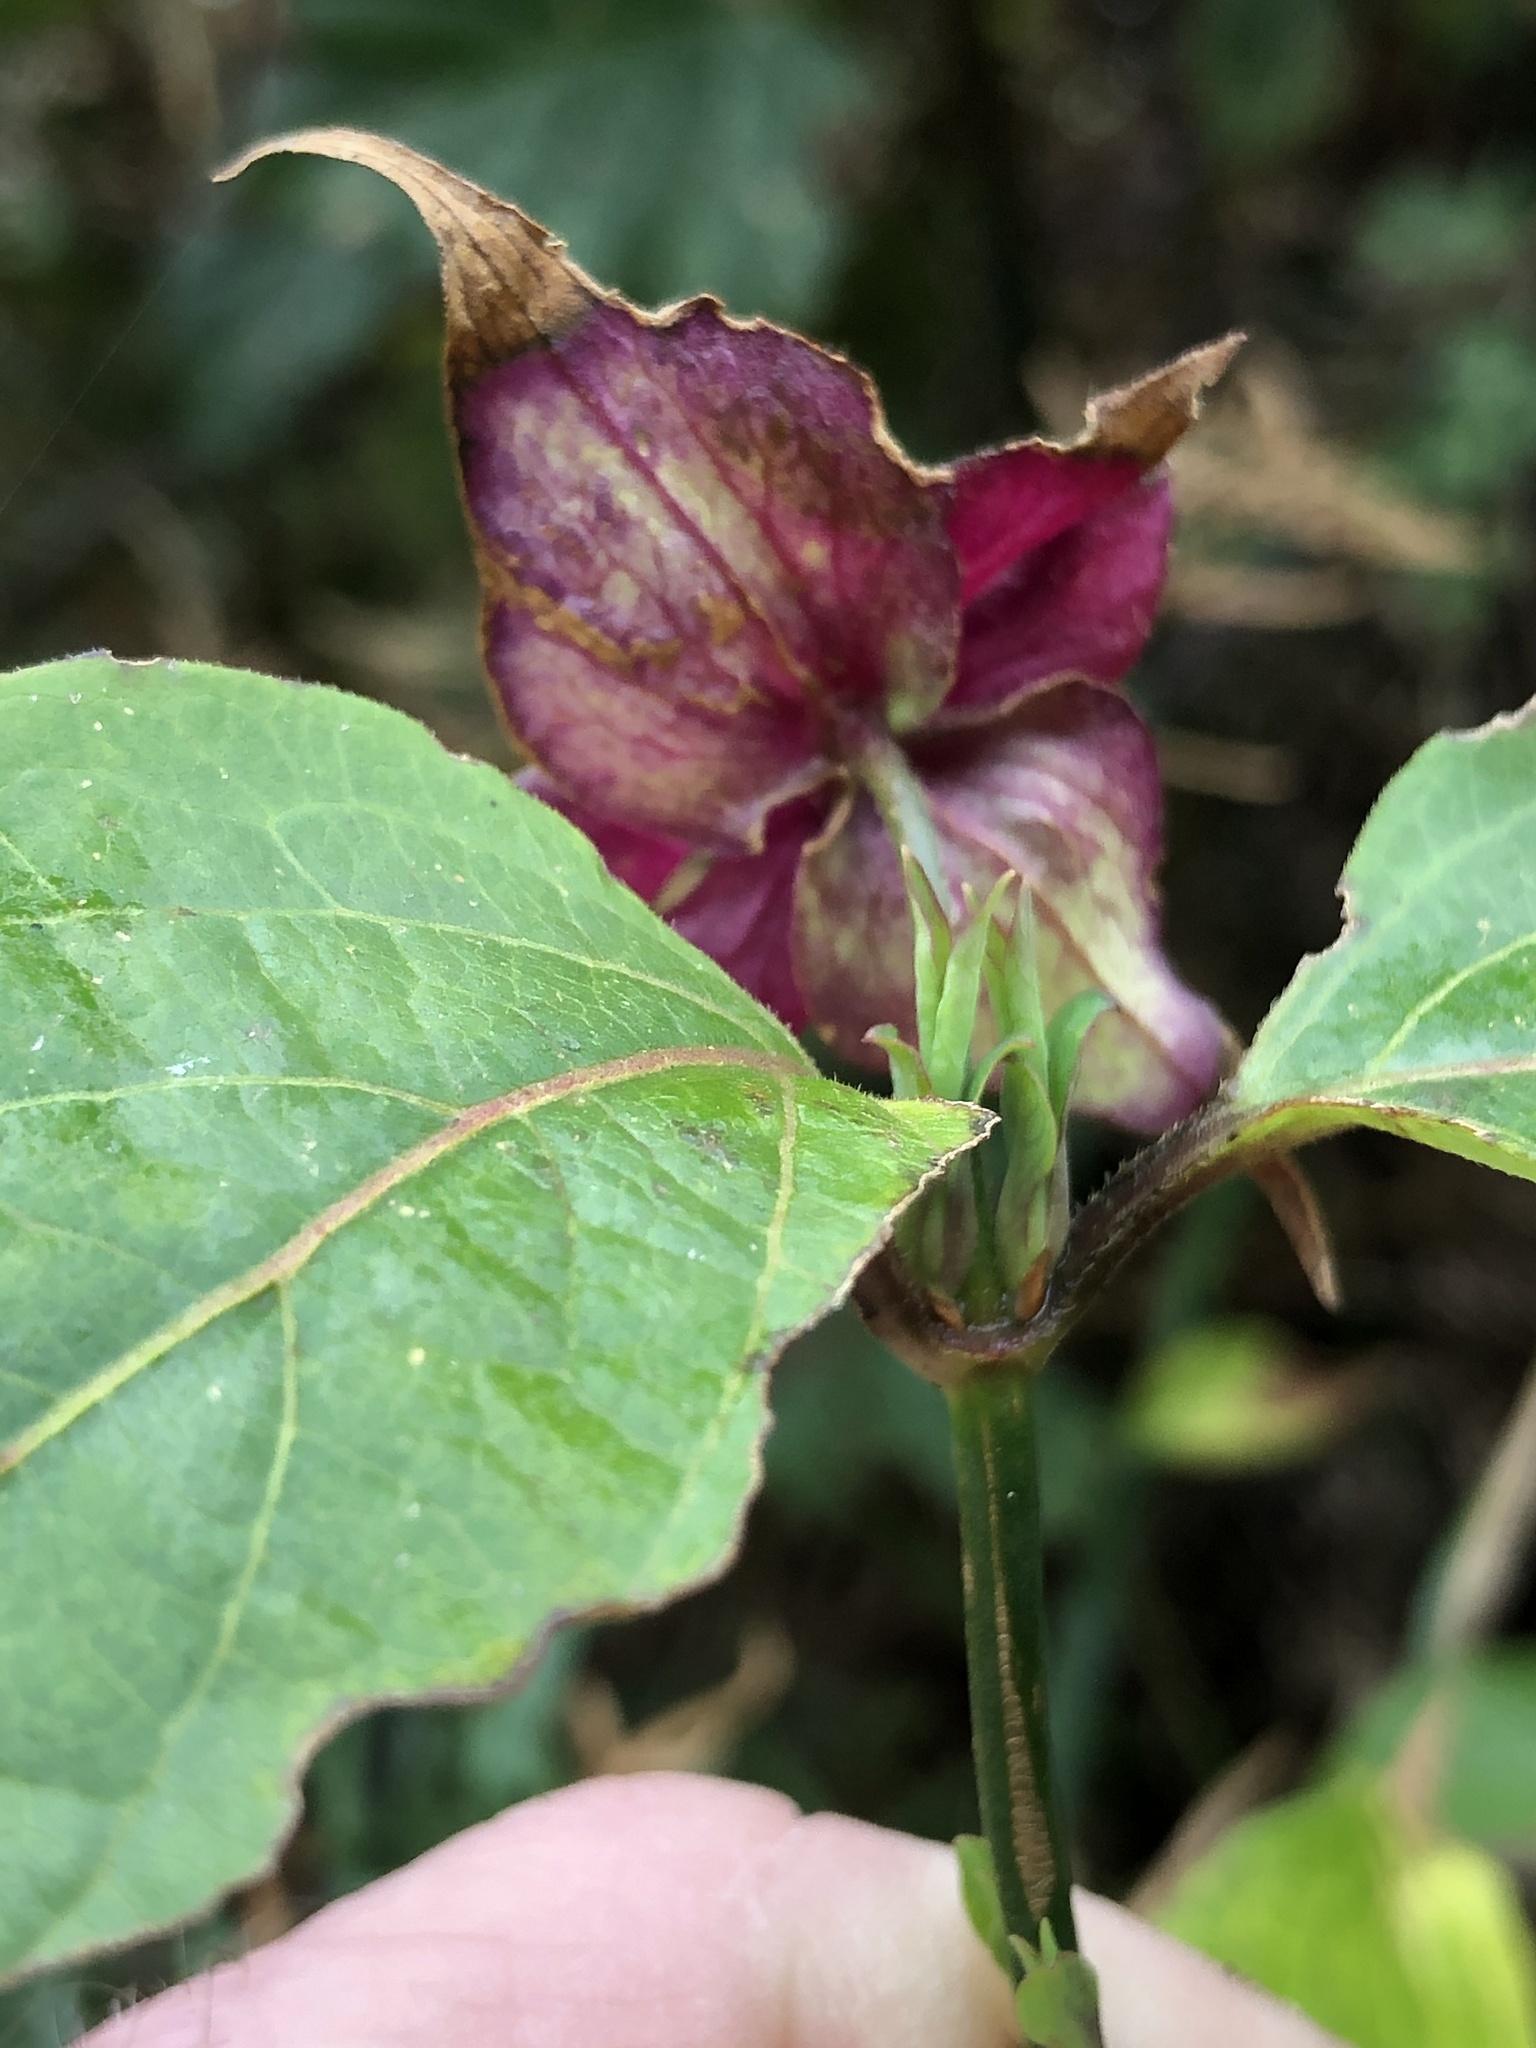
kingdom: Plantae
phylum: Tracheophyta
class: Magnoliopsida
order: Dipsacales
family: Caprifoliaceae
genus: Leycesteria
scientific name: Leycesteria formosa
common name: Himalayan honeysuckle
